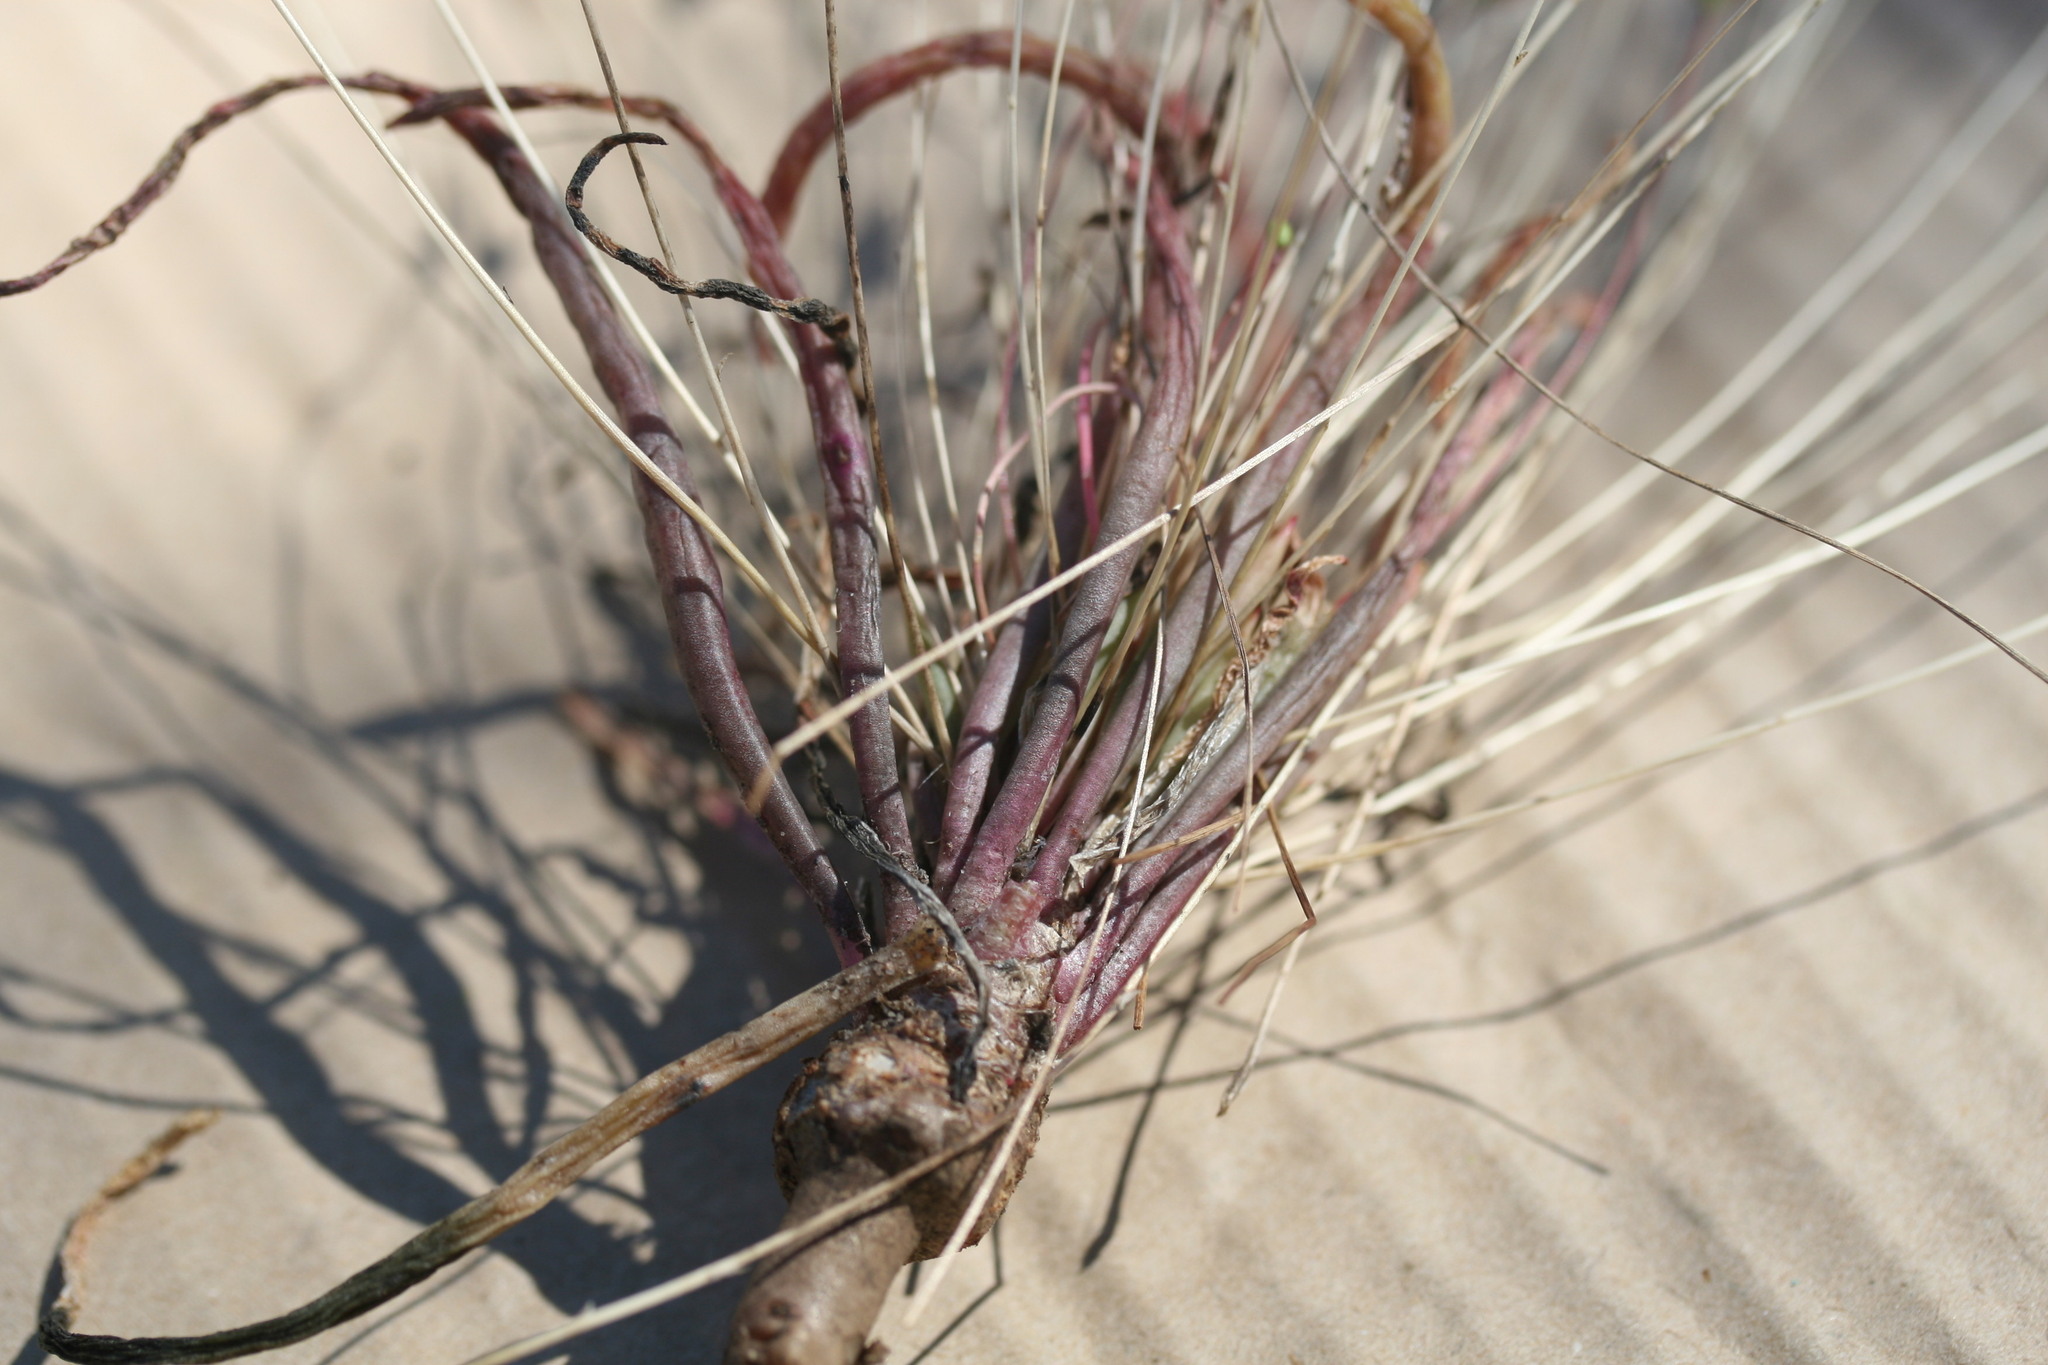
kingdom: Plantae
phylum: Tracheophyta
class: Magnoliopsida
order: Caryophyllales
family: Montiaceae
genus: Rumicastrum
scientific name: Rumicastrum uniflorum
